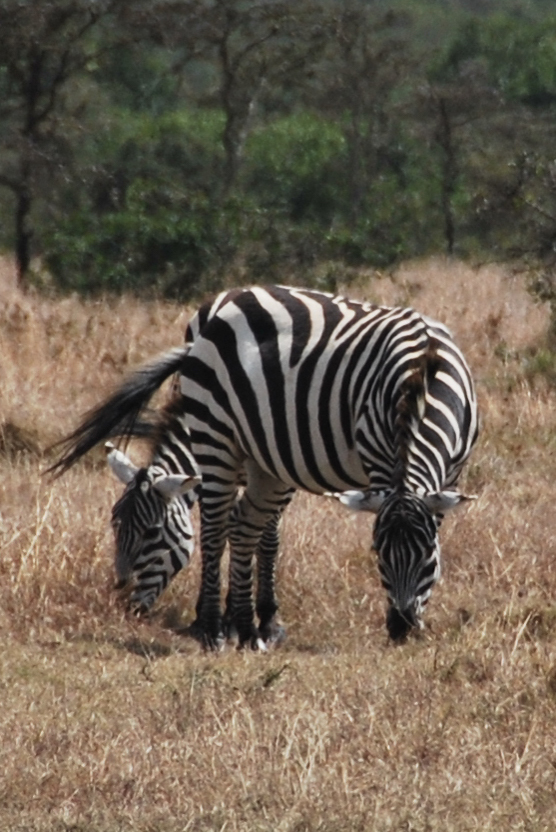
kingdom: Animalia
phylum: Chordata
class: Mammalia
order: Perissodactyla
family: Equidae
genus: Equus
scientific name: Equus quagga
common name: Plains zebra
